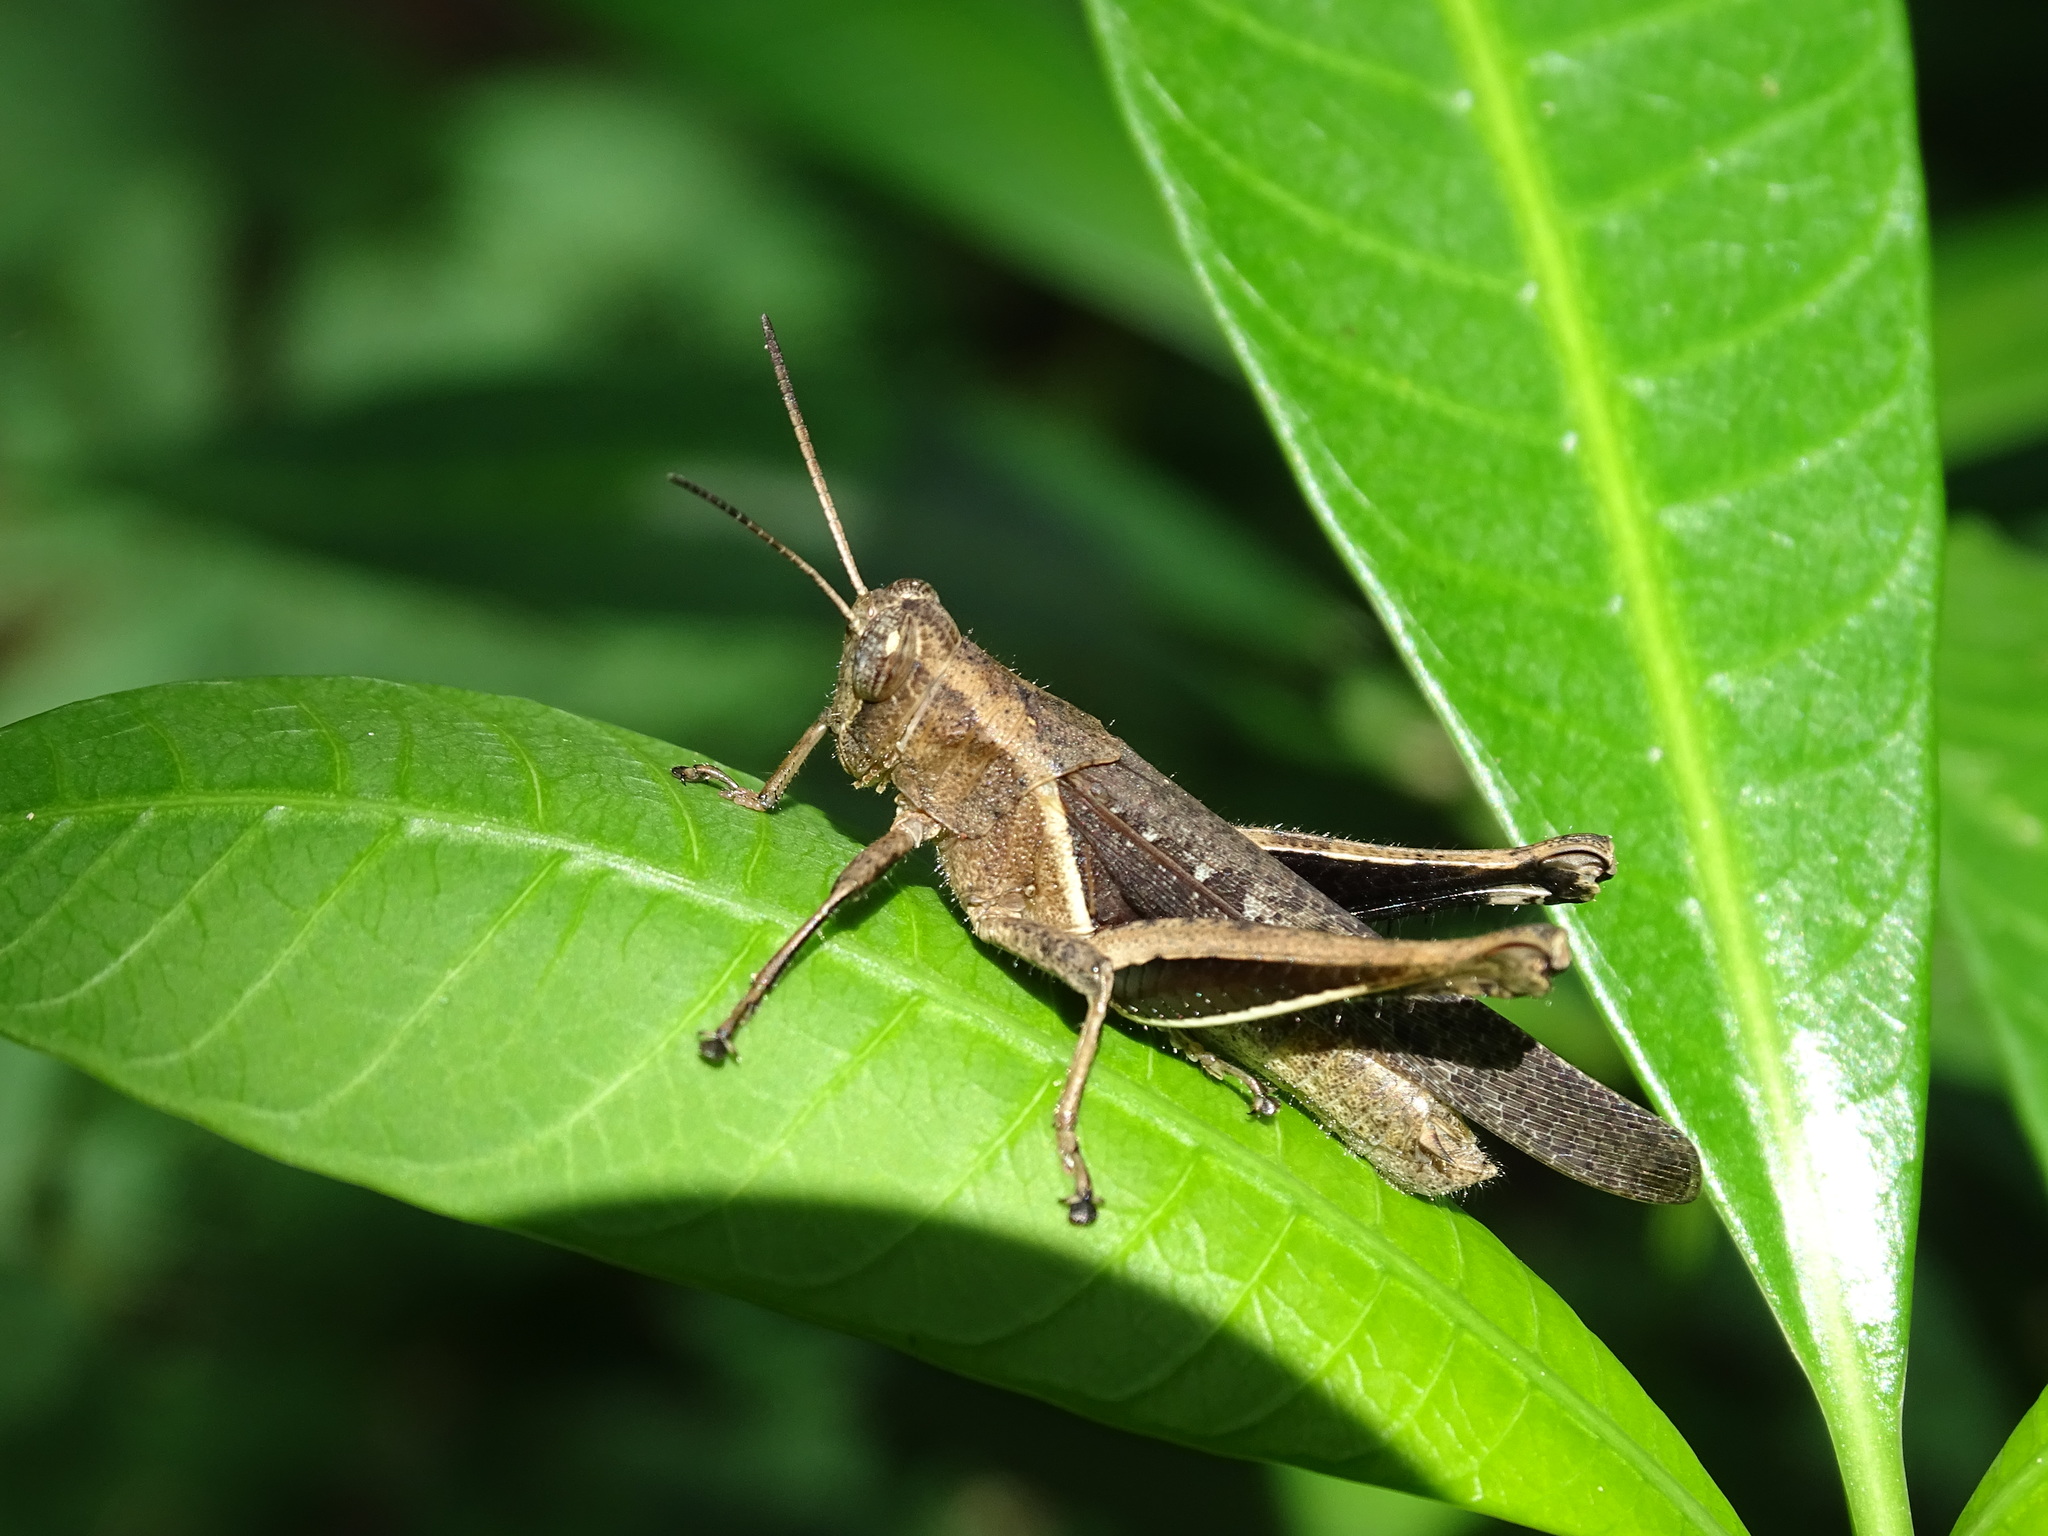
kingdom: Animalia
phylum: Arthropoda
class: Insecta
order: Orthoptera
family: Acrididae
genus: Abracris
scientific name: Abracris flavolineata
